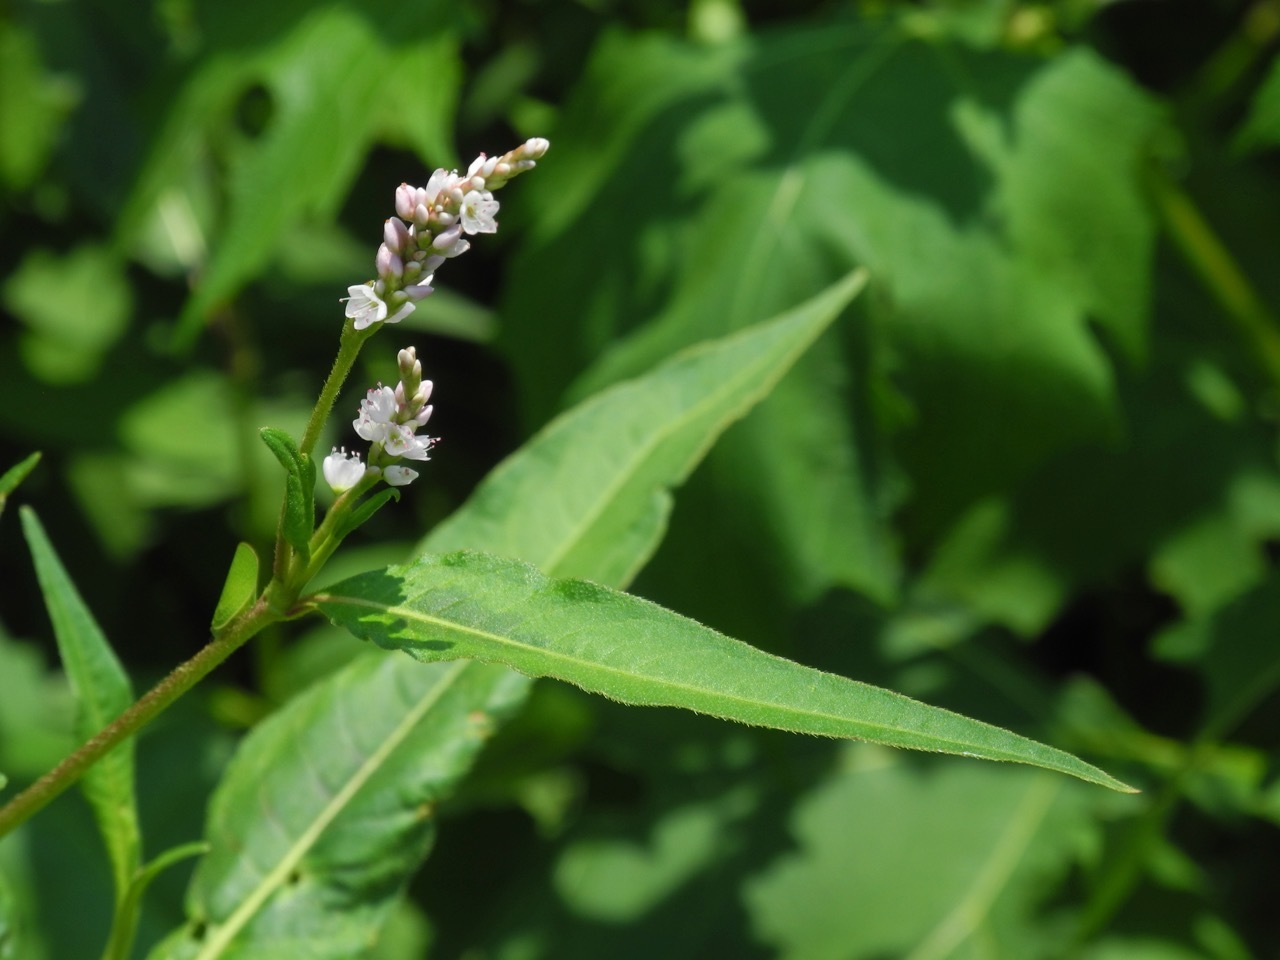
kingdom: Plantae
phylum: Tracheophyta
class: Magnoliopsida
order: Caryophyllales
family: Polygonaceae
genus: Persicaria
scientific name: Persicaria maculosa
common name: Redshank
